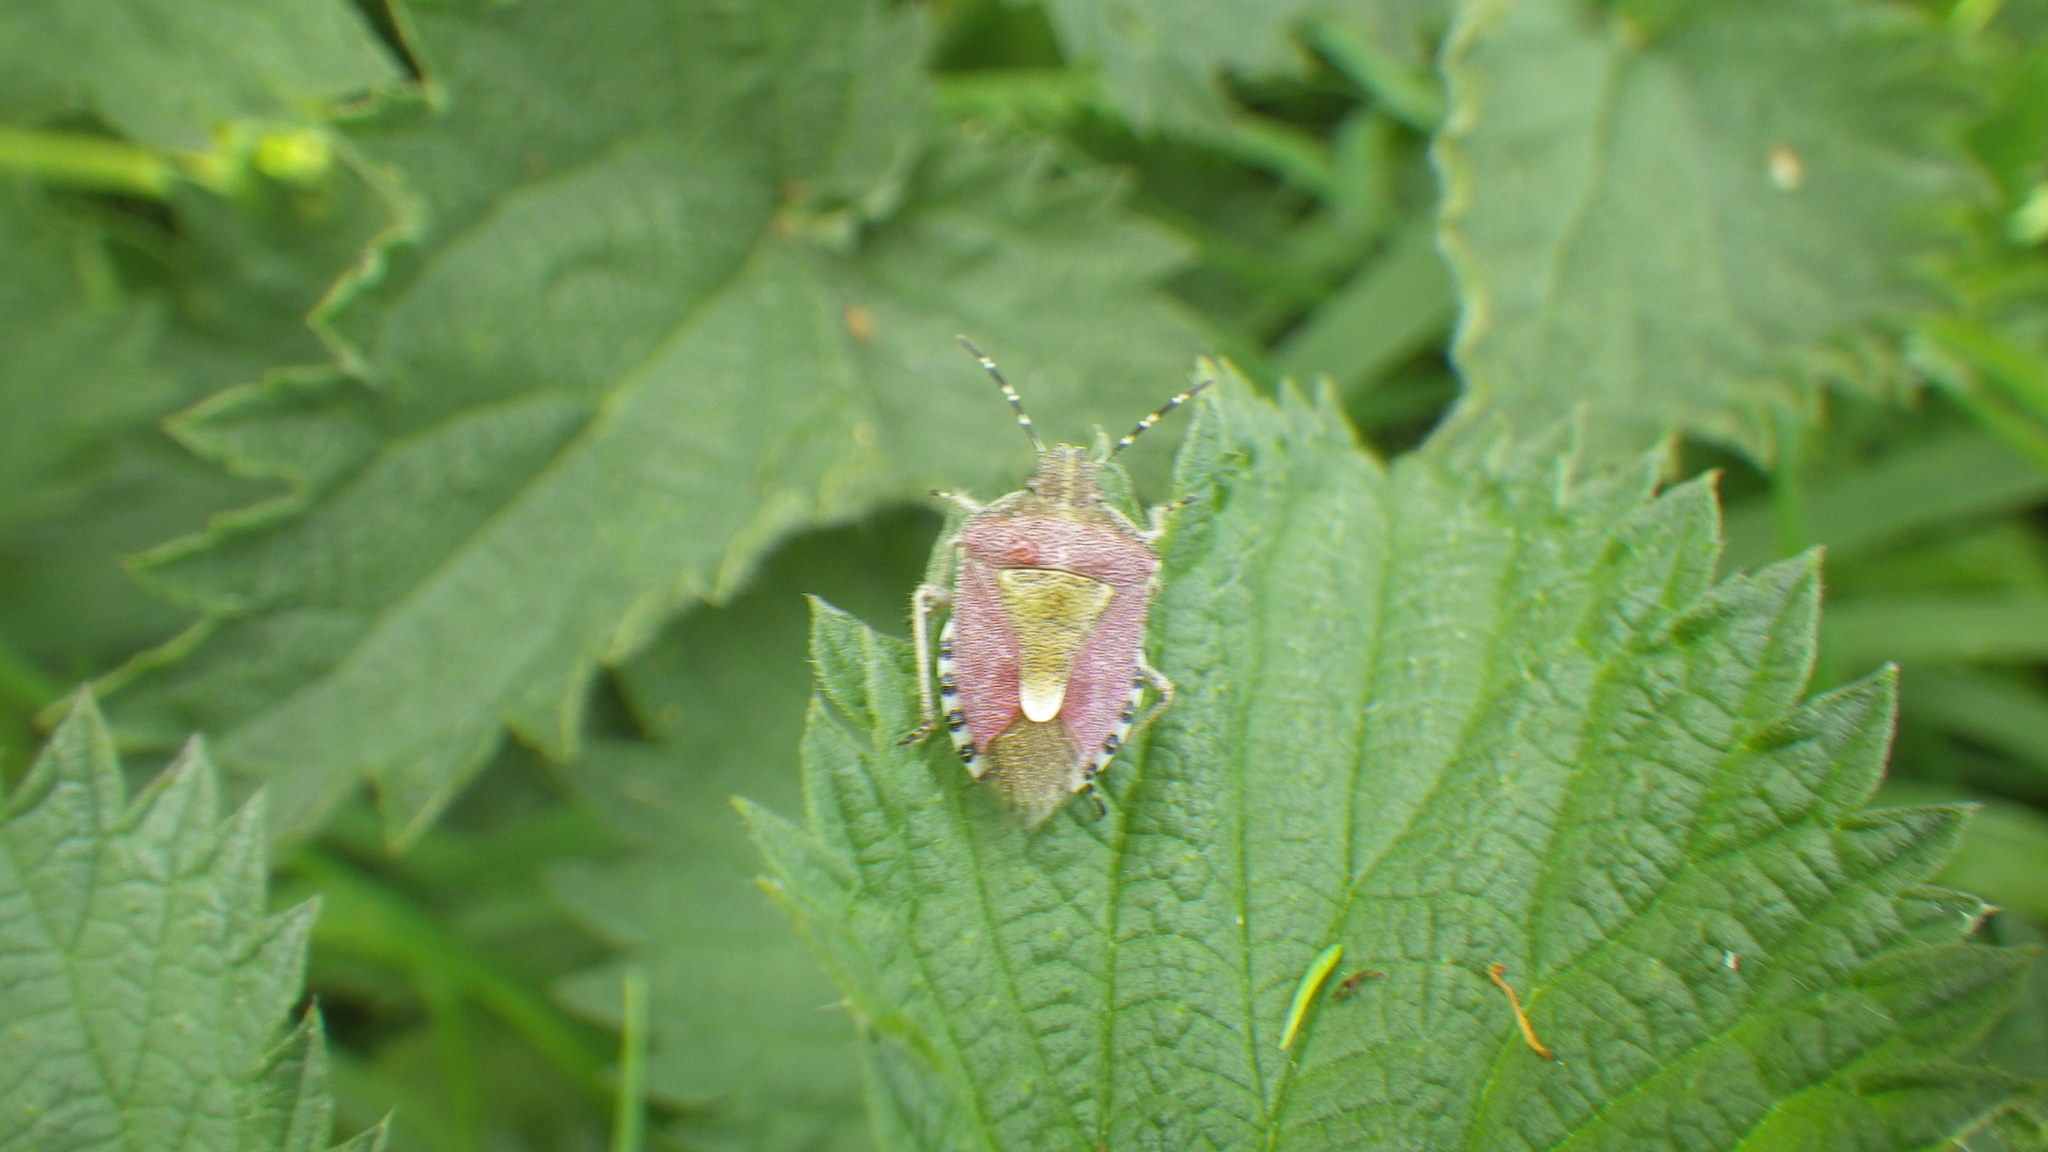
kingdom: Animalia
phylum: Arthropoda
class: Insecta
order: Hemiptera
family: Pentatomidae
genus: Dolycoris
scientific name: Dolycoris baccarum
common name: Sloe bug
